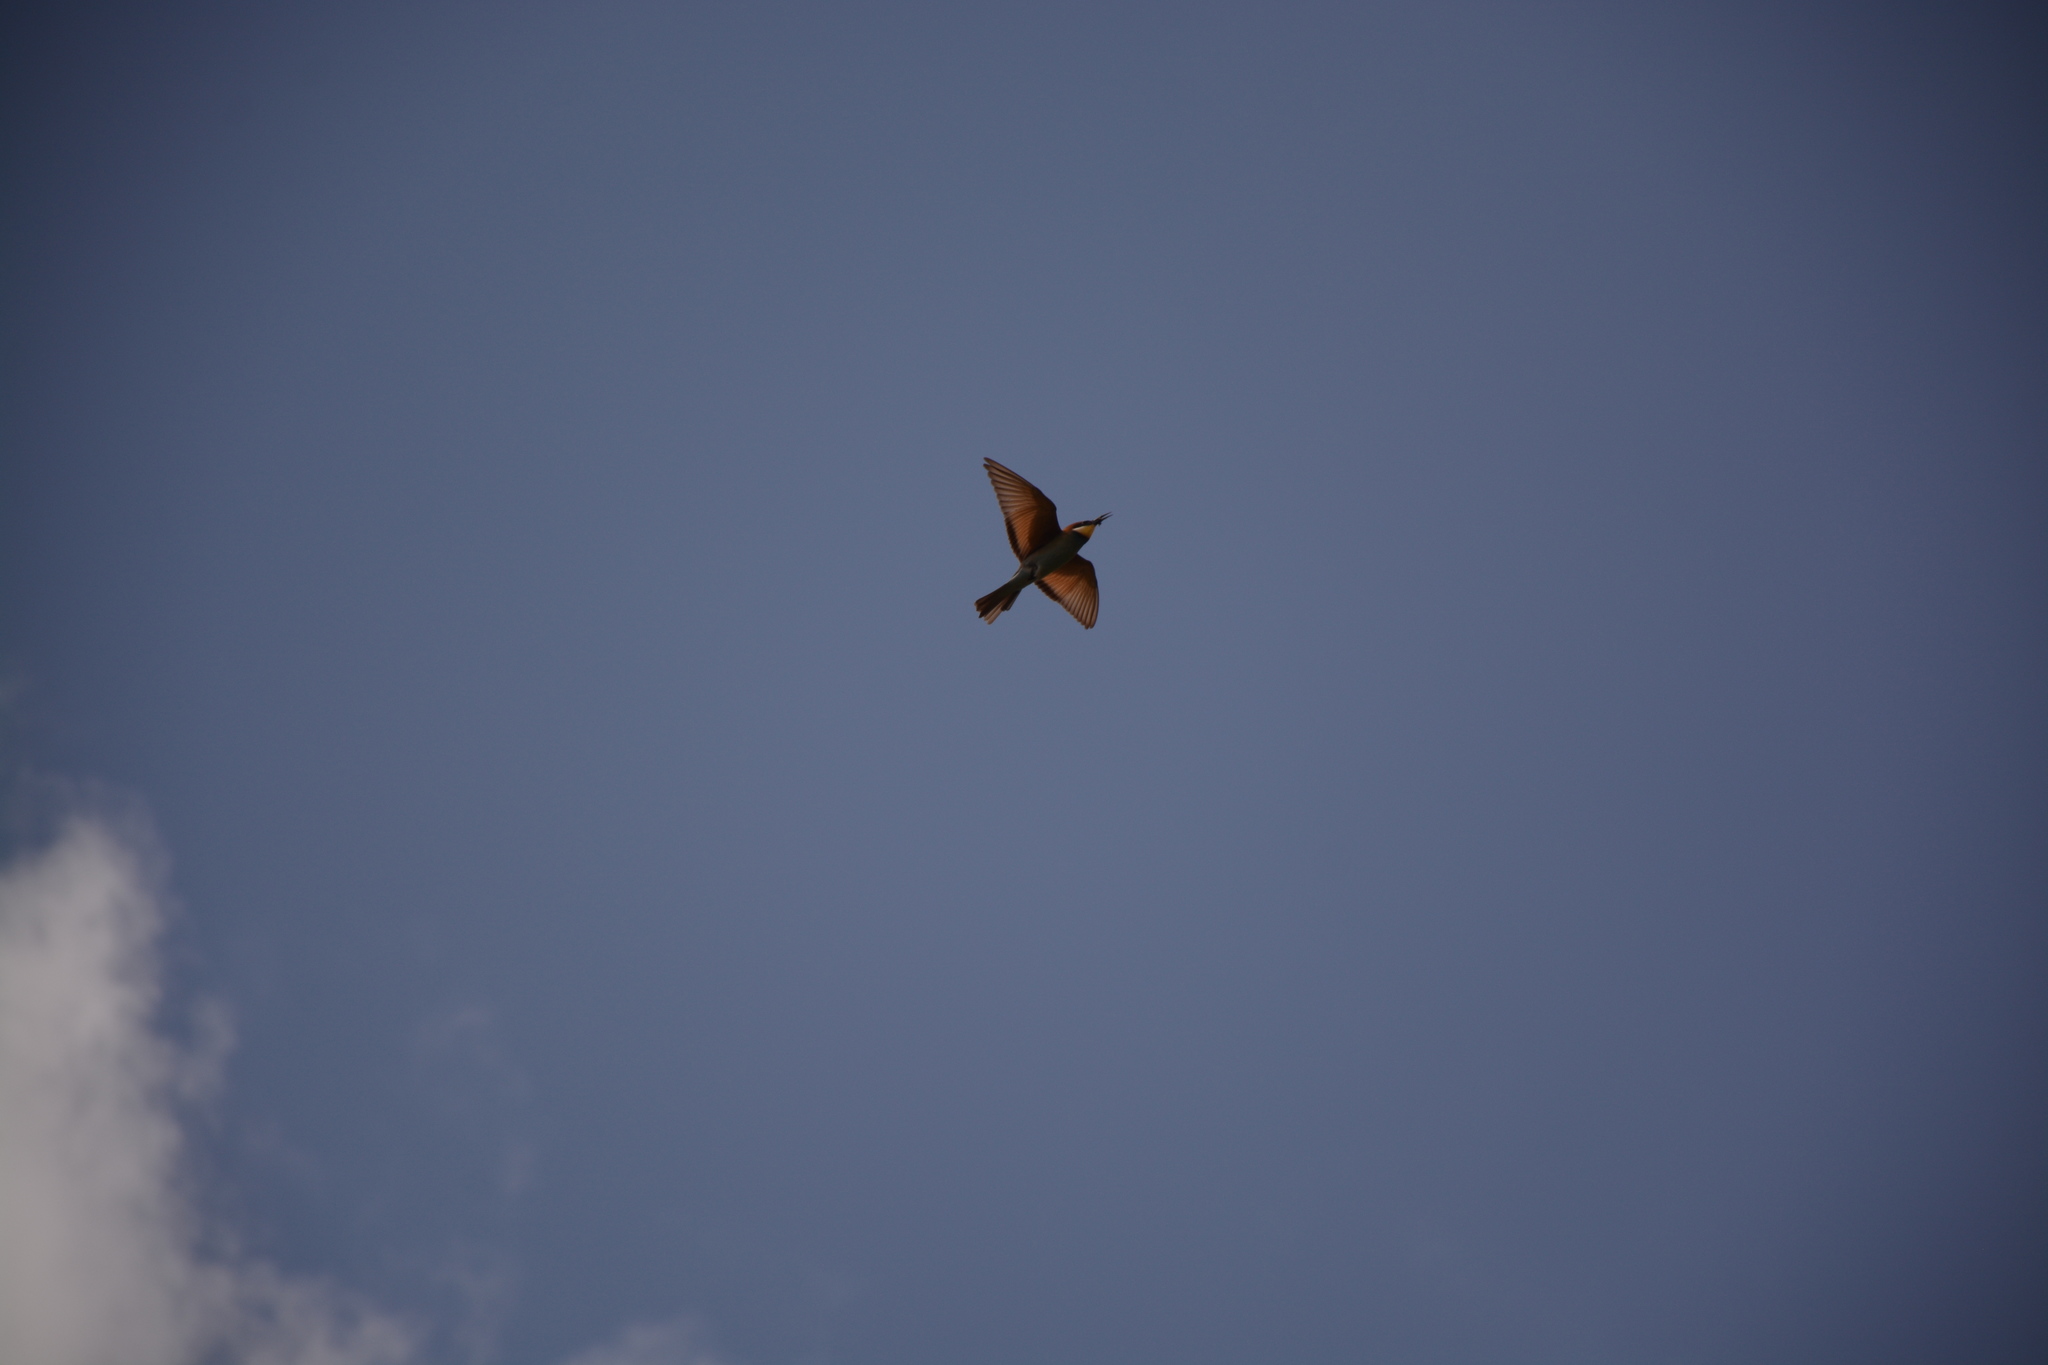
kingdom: Animalia
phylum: Chordata
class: Aves
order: Coraciiformes
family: Meropidae
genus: Merops
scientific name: Merops apiaster
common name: European bee-eater
